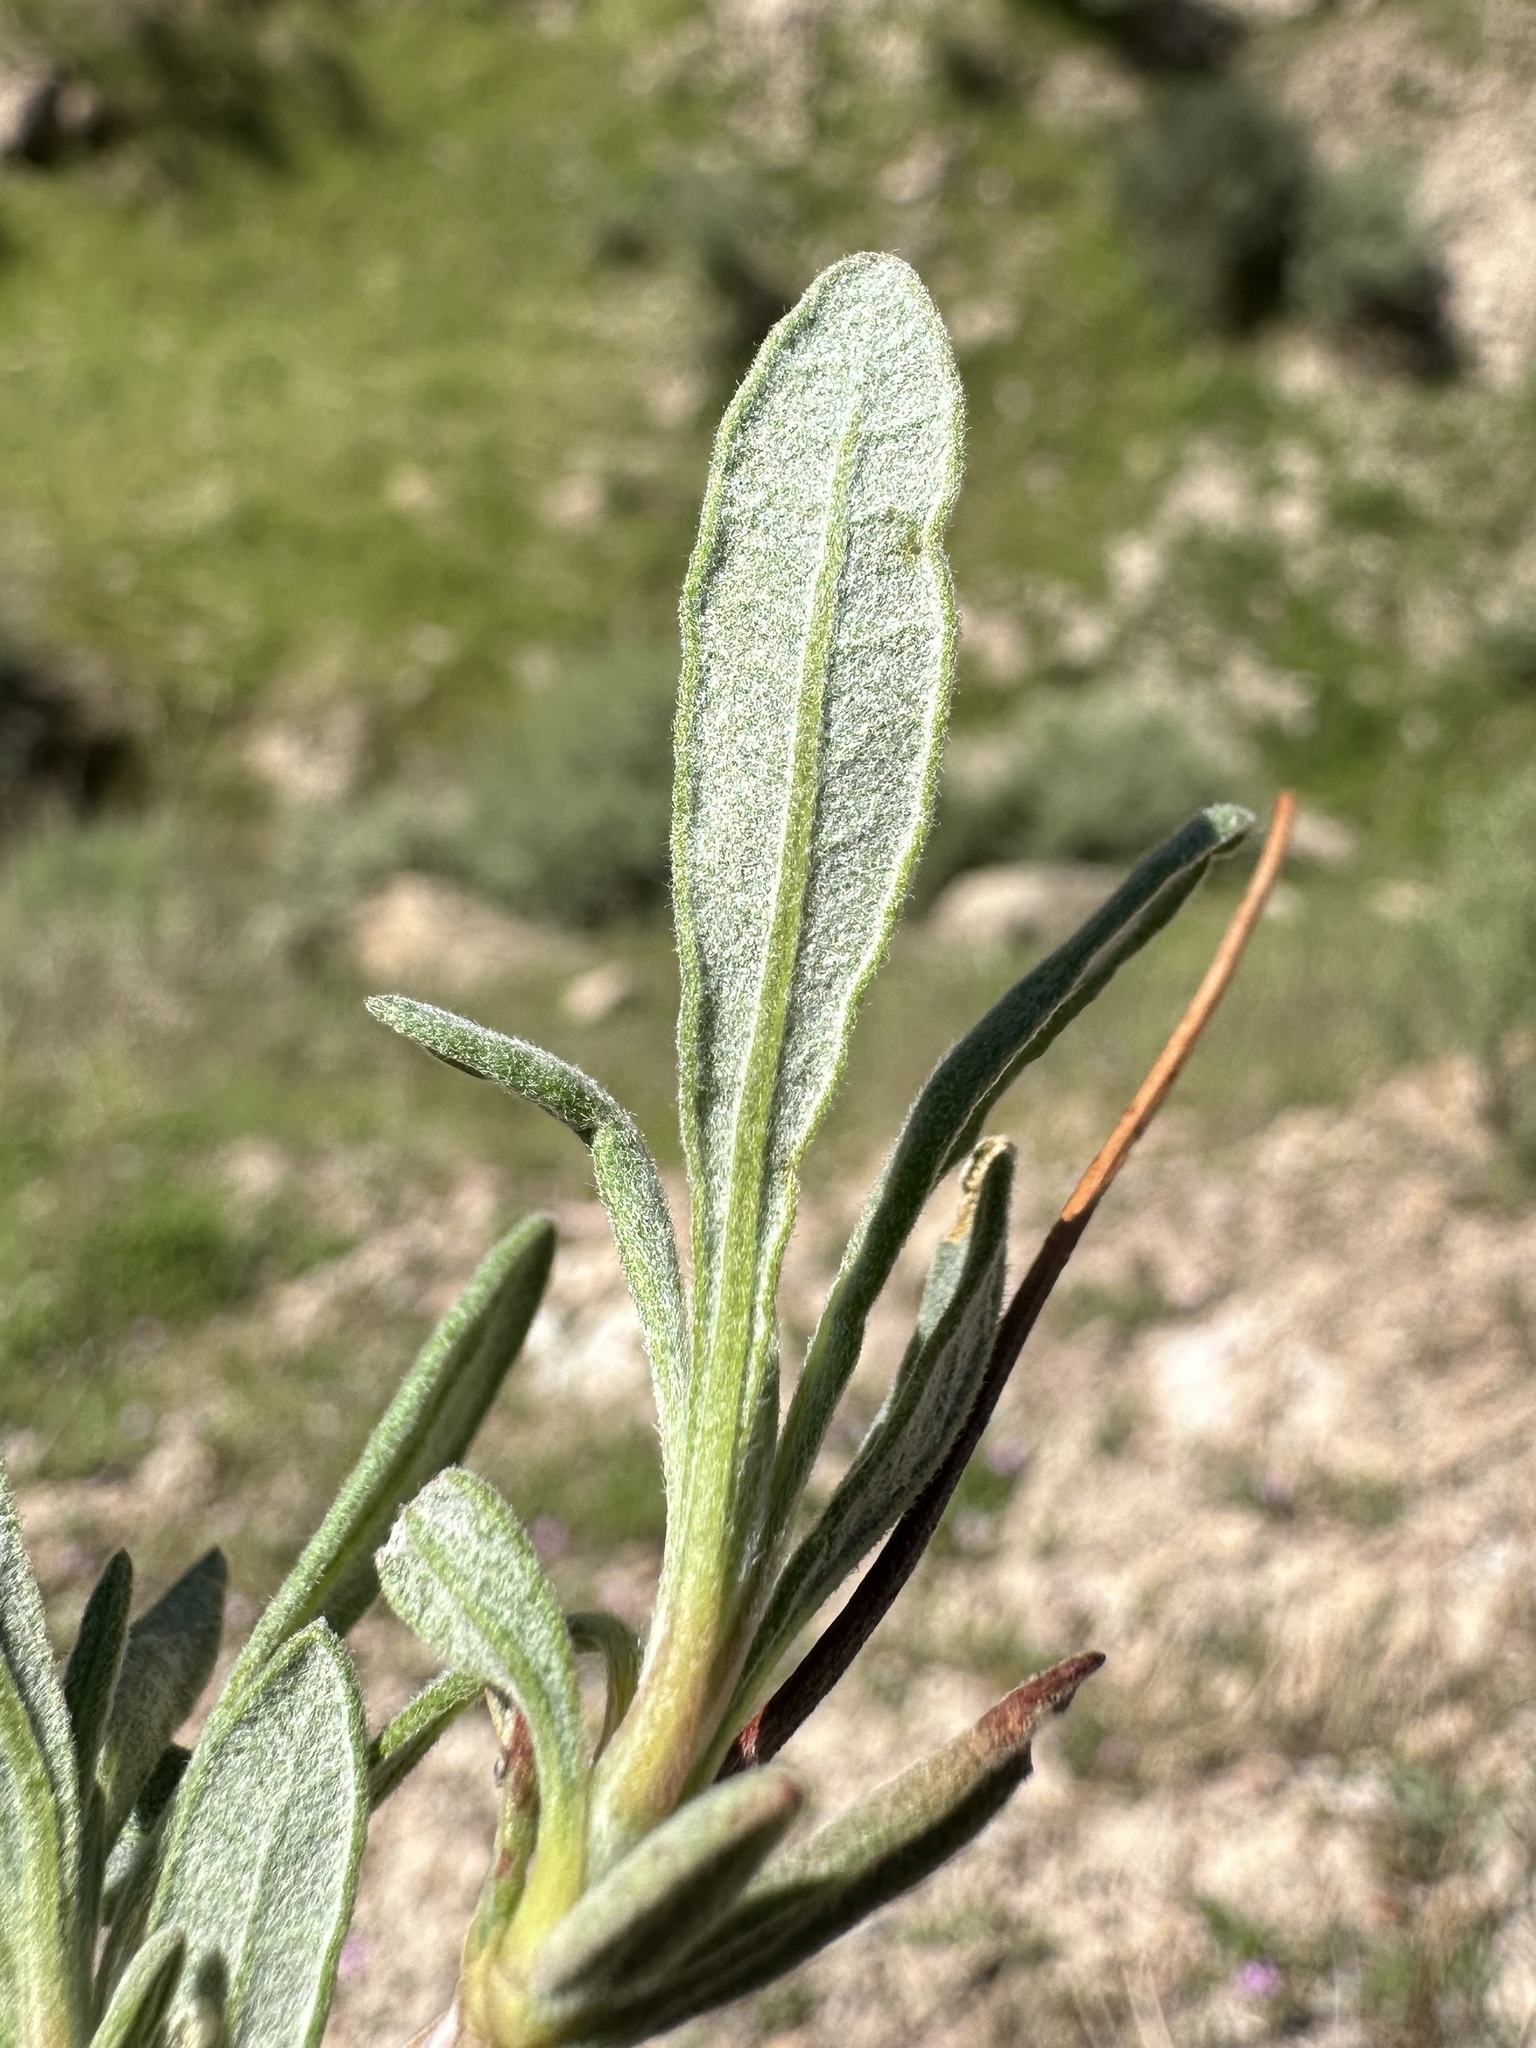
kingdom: Plantae
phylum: Tracheophyta
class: Magnoliopsida
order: Caryophyllales
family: Polygonaceae
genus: Eriogonum
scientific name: Eriogonum fasciculatum
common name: California wild buckwheat
